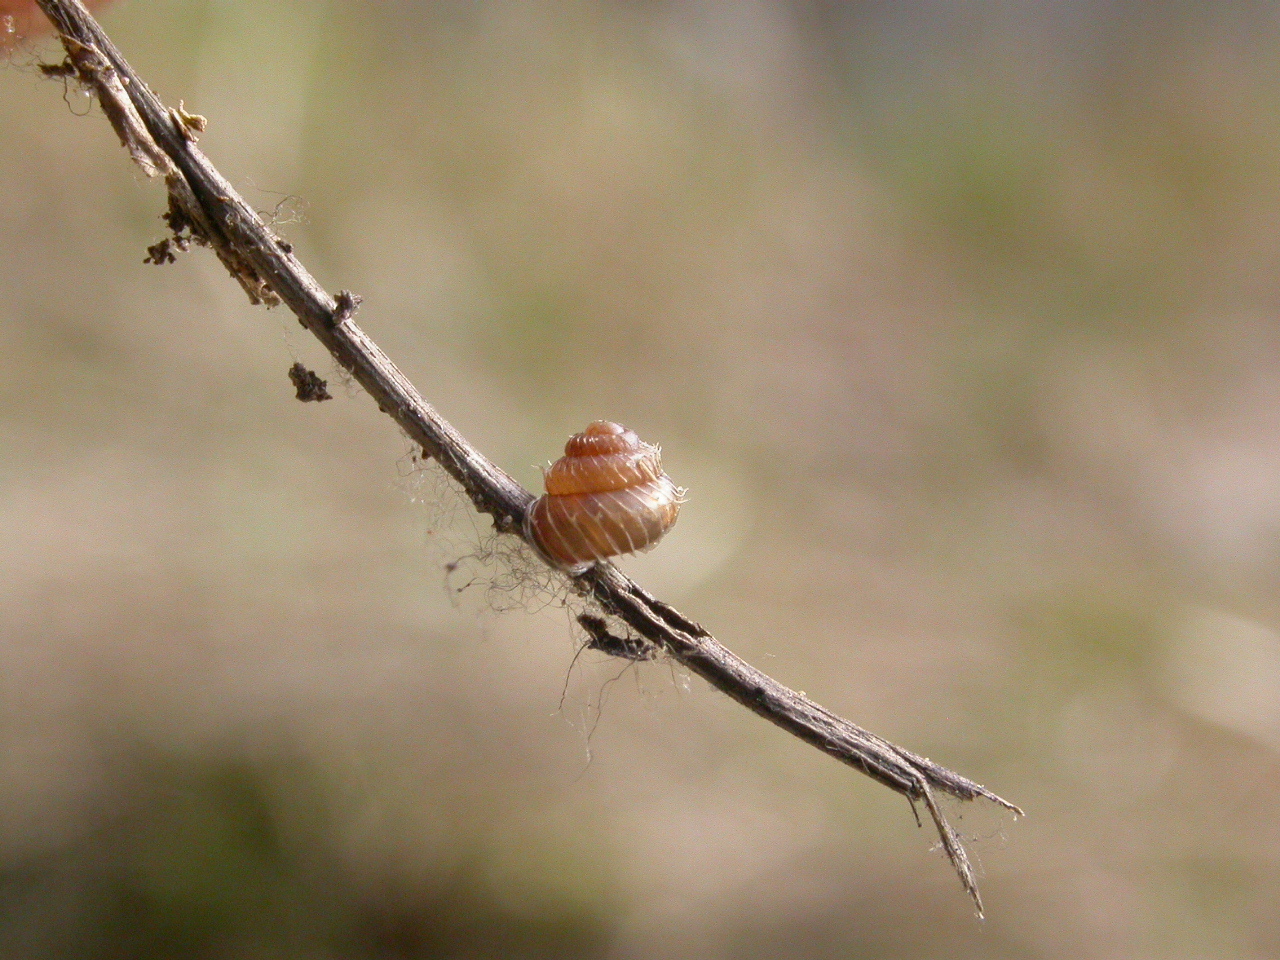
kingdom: Animalia
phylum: Mollusca
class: Gastropoda
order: Stylommatophora
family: Valloniidae
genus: Acanthinula
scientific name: Acanthinula aculeata
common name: Prickly snail
